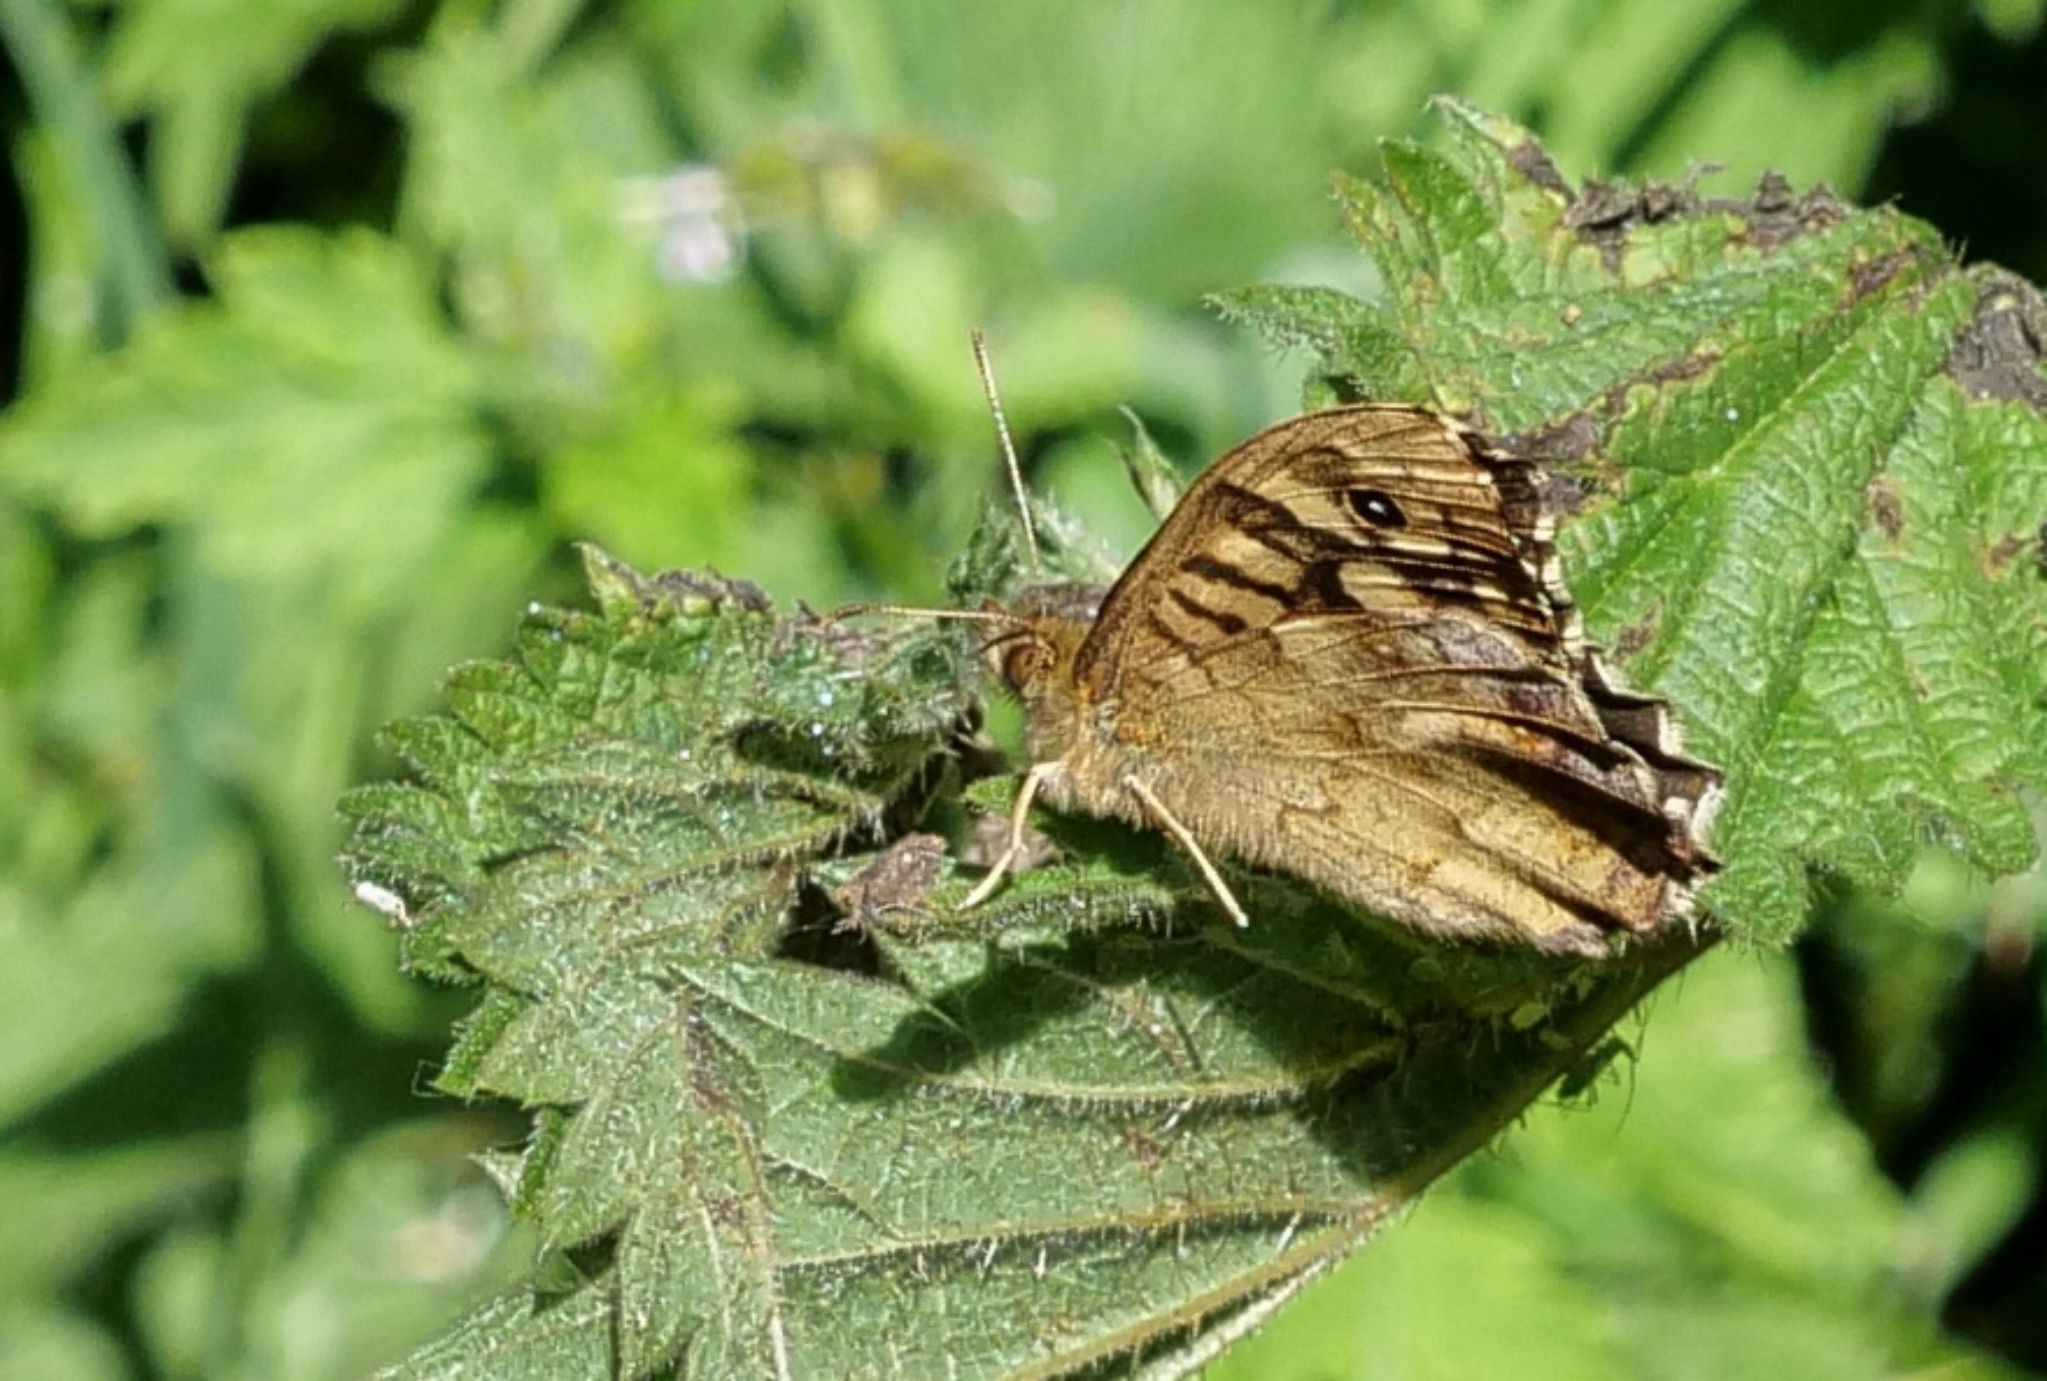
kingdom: Animalia
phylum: Arthropoda
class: Insecta
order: Lepidoptera
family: Nymphalidae
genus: Pararge
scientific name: Pararge aegeria
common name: Speckled wood
